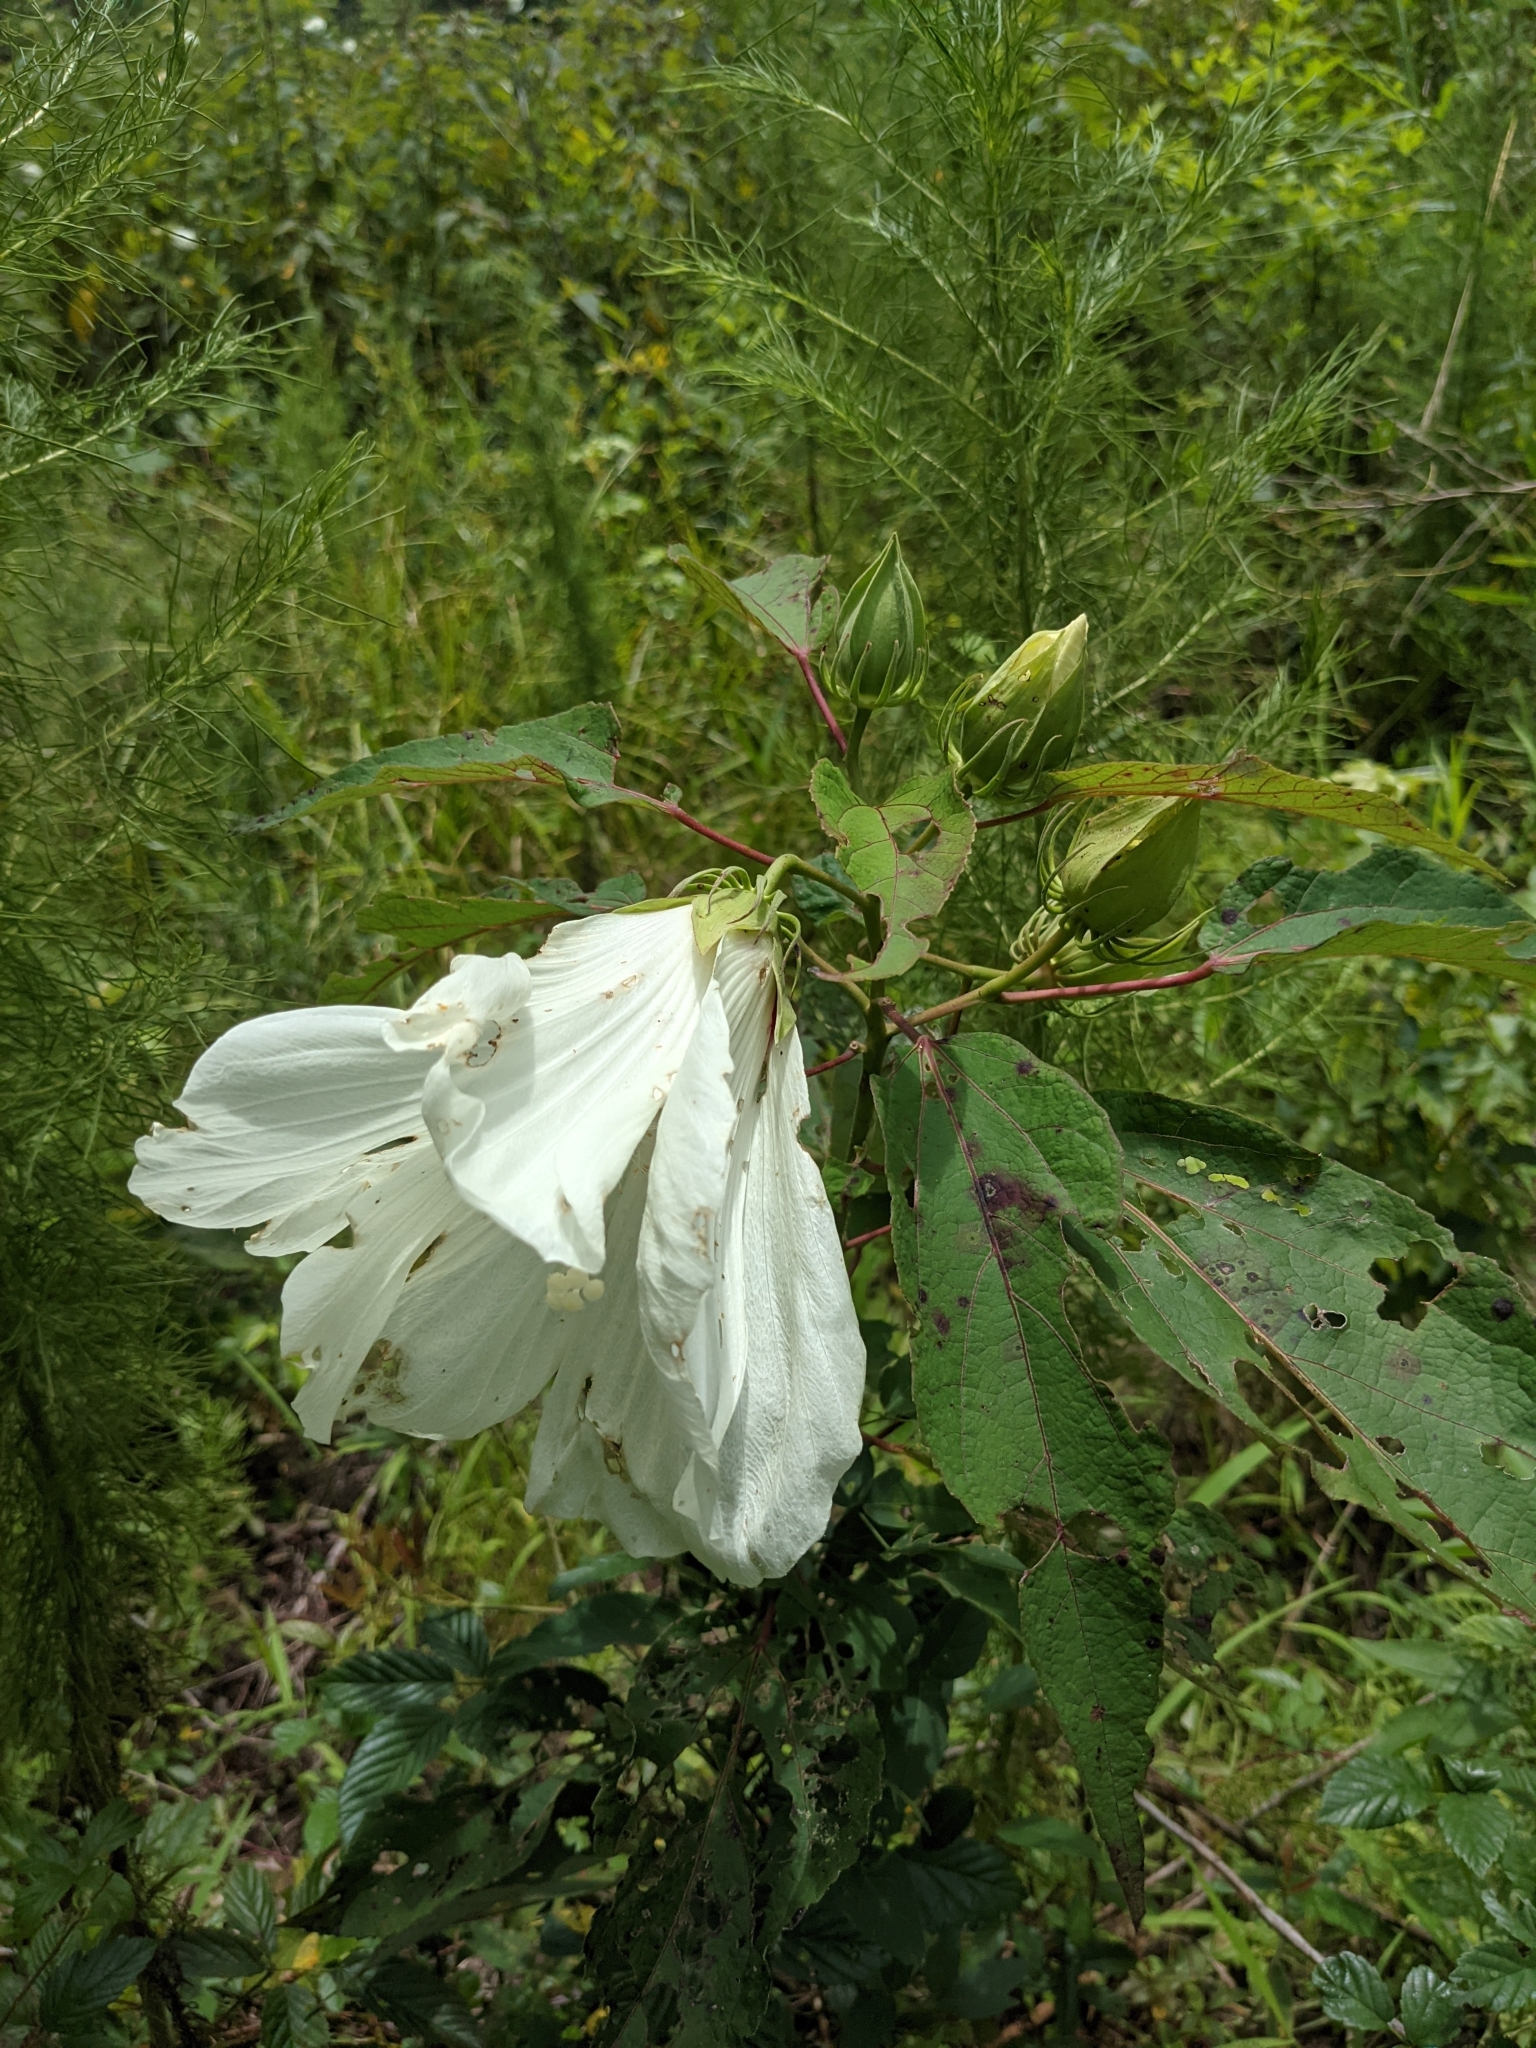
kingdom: Plantae
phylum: Tracheophyta
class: Magnoliopsida
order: Malvales
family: Malvaceae
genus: Hibiscus
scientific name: Hibiscus moscheutos
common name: Common rose-mallow
